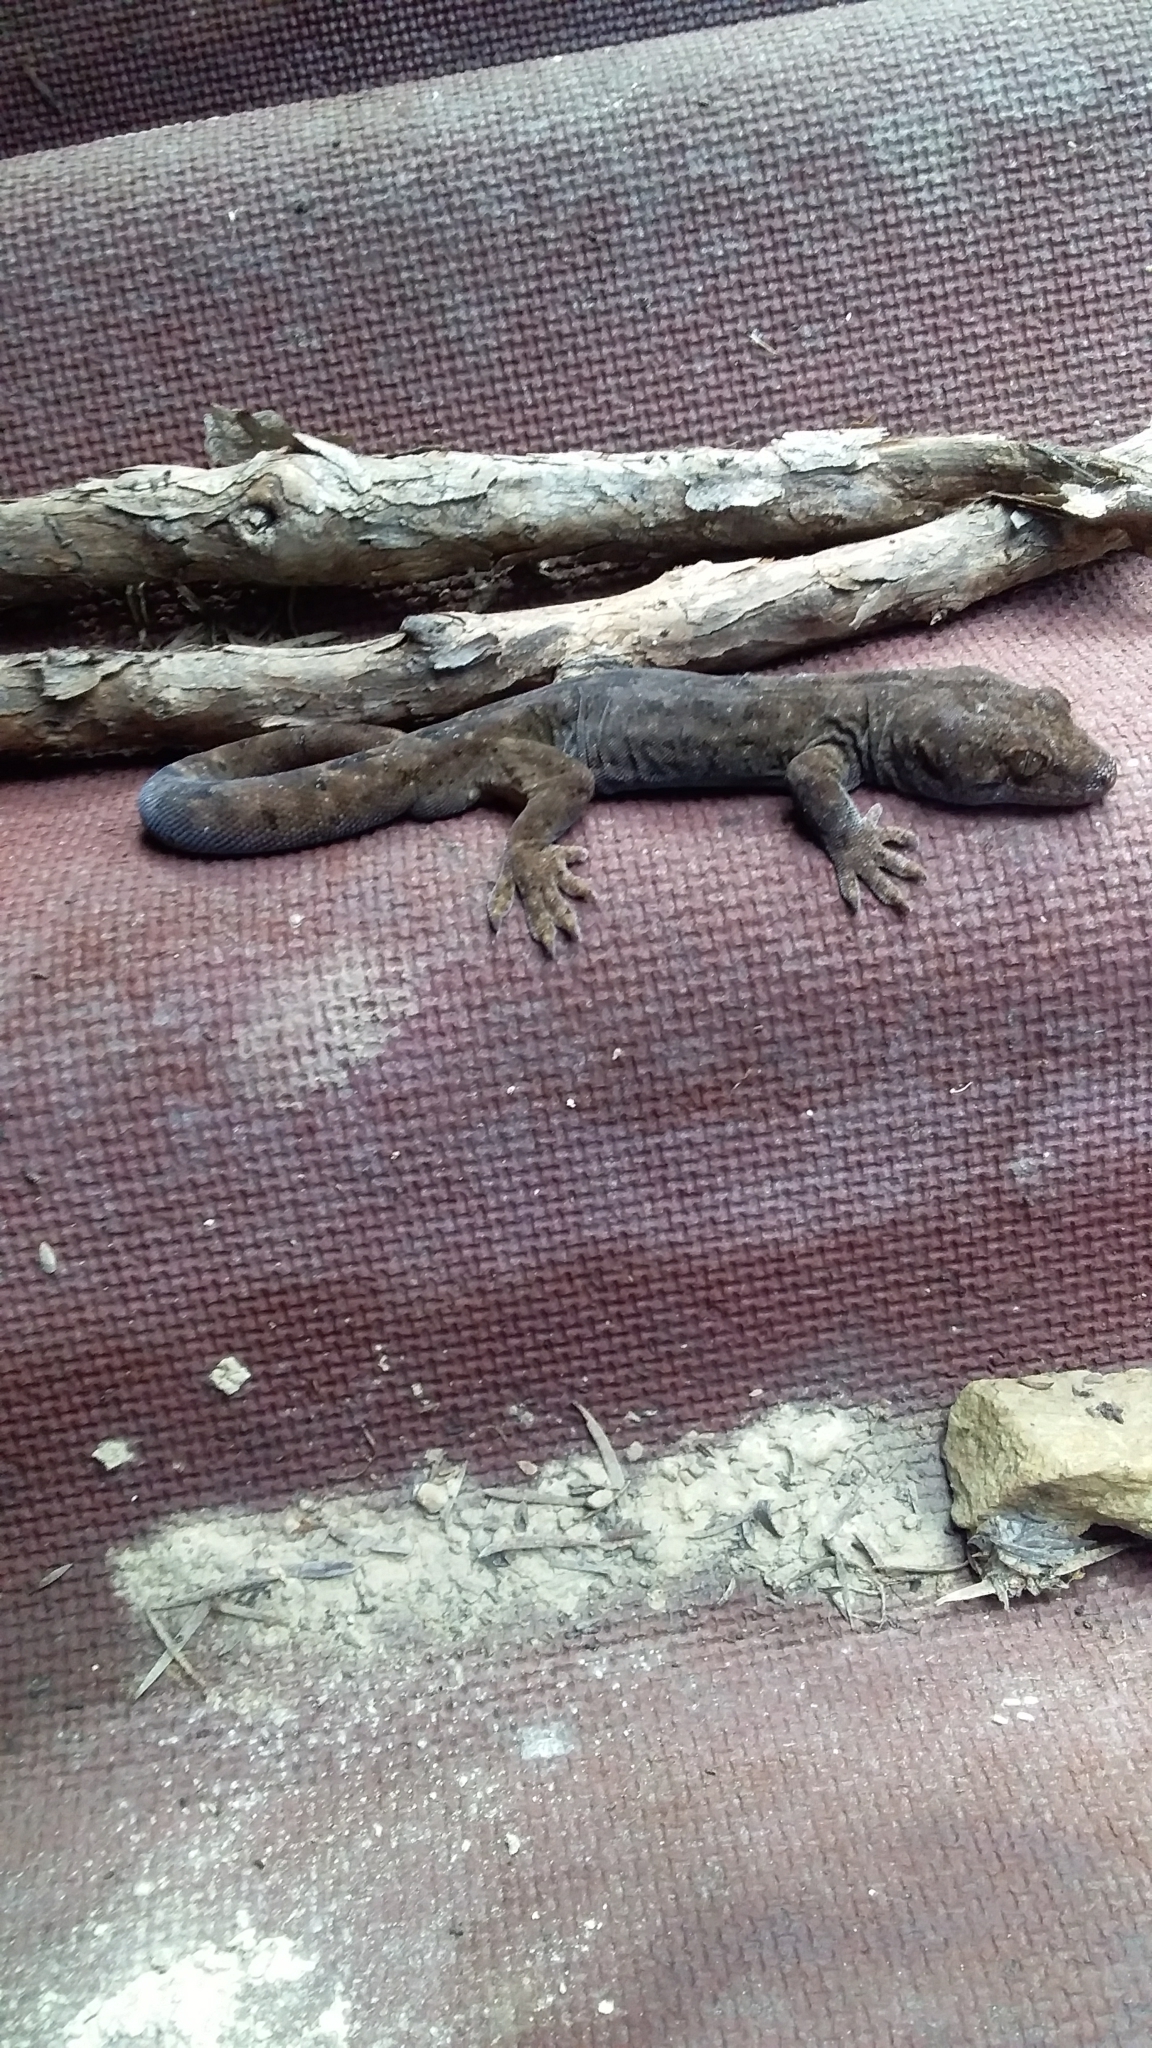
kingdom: Animalia
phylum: Chordata
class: Squamata
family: Diplodactylidae
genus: Woodworthia
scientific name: Woodworthia maculata
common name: Raukawa gecko
